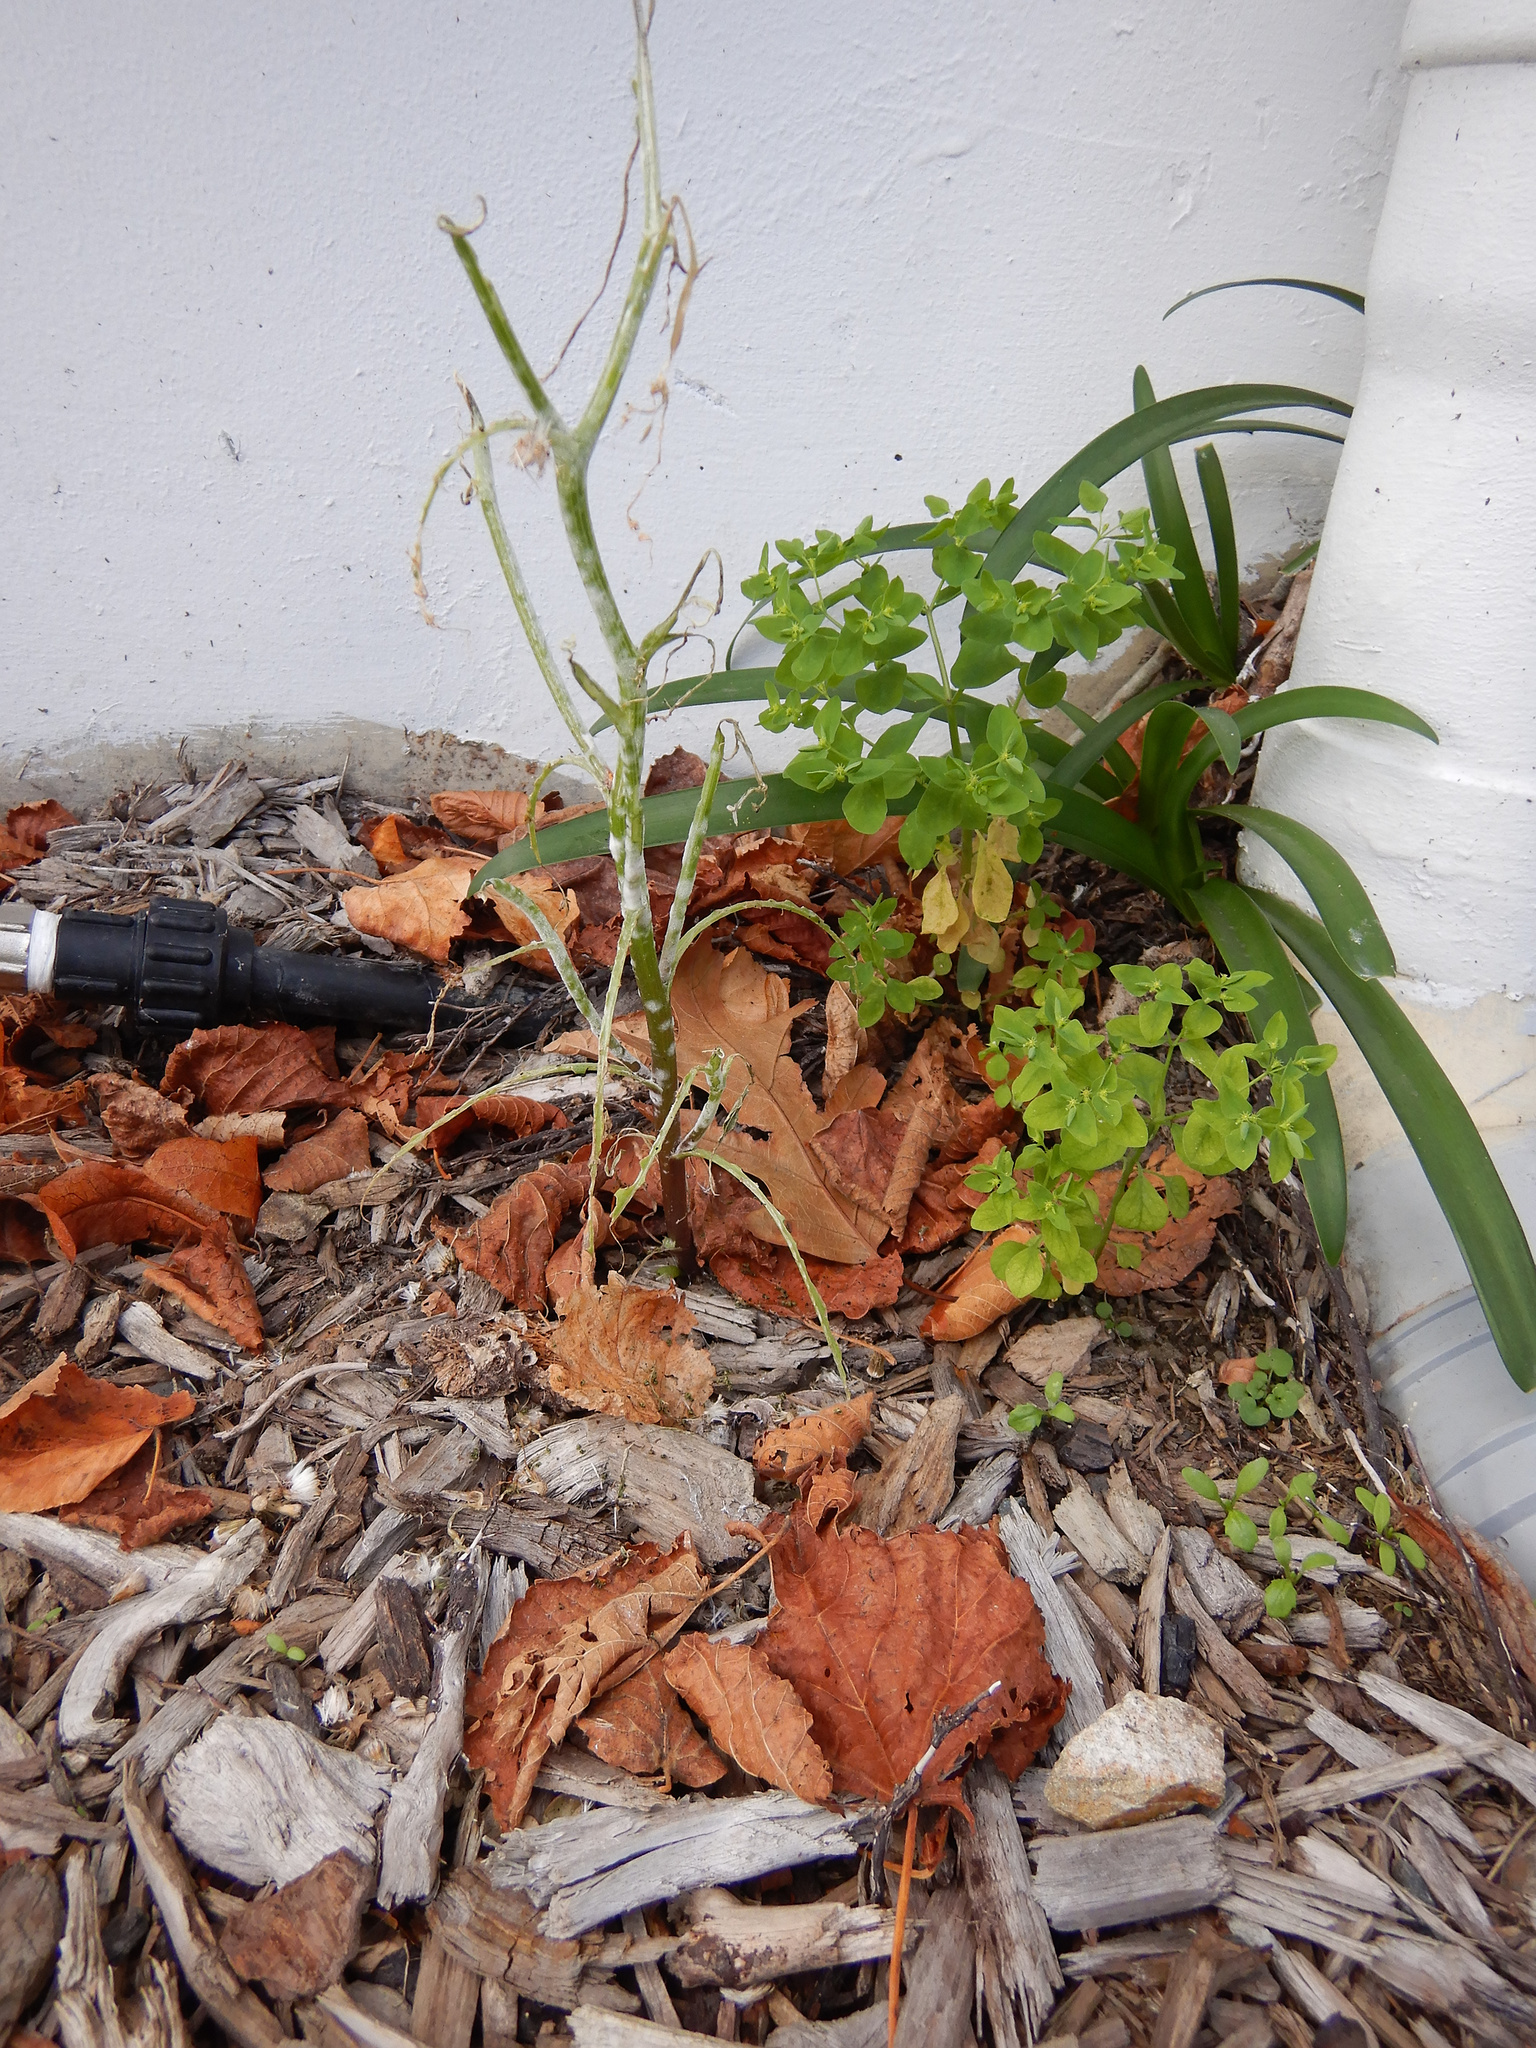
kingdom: Plantae
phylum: Tracheophyta
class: Magnoliopsida
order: Asterales
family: Asteraceae
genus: Senecio
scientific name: Senecio vulgaris
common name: Old-man-in-the-spring
